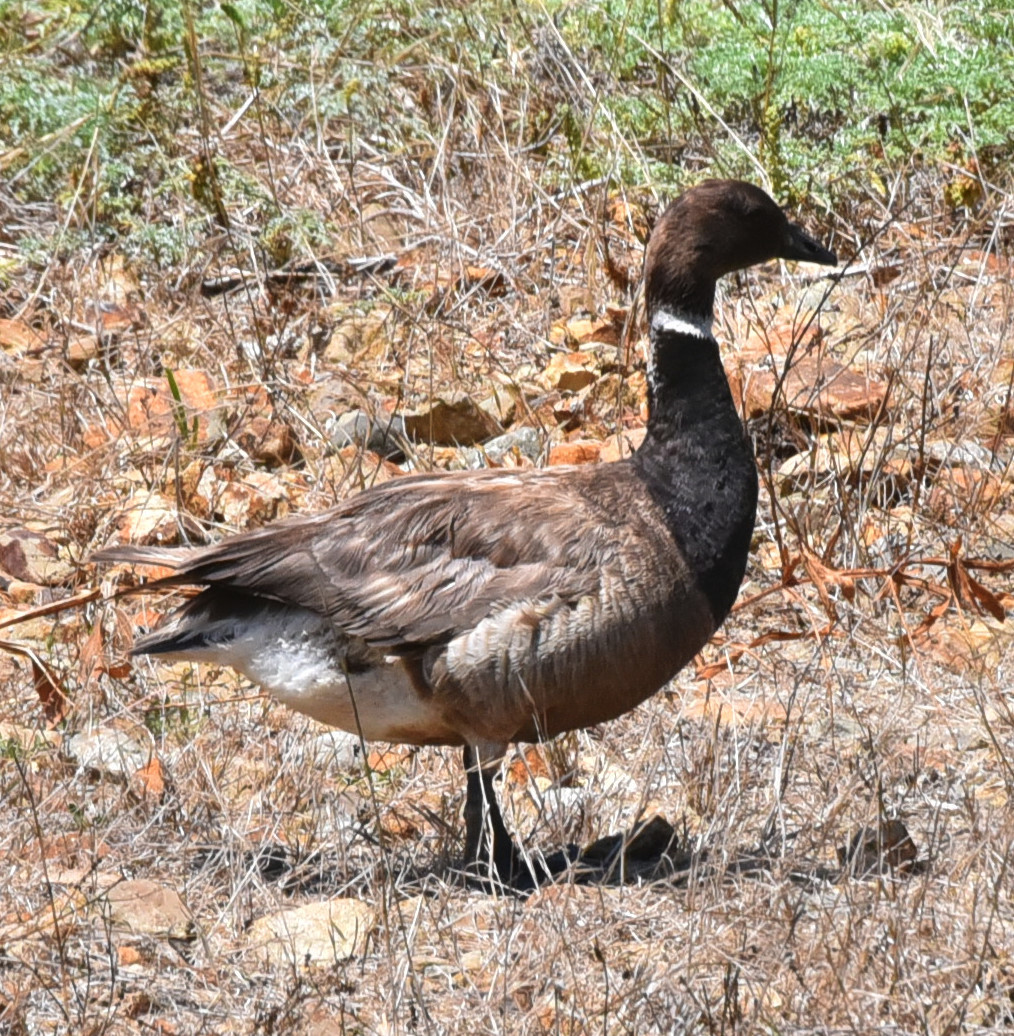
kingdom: Animalia
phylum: Chordata
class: Aves
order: Anseriformes
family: Anatidae
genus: Branta
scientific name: Branta bernicla
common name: Brant goose
